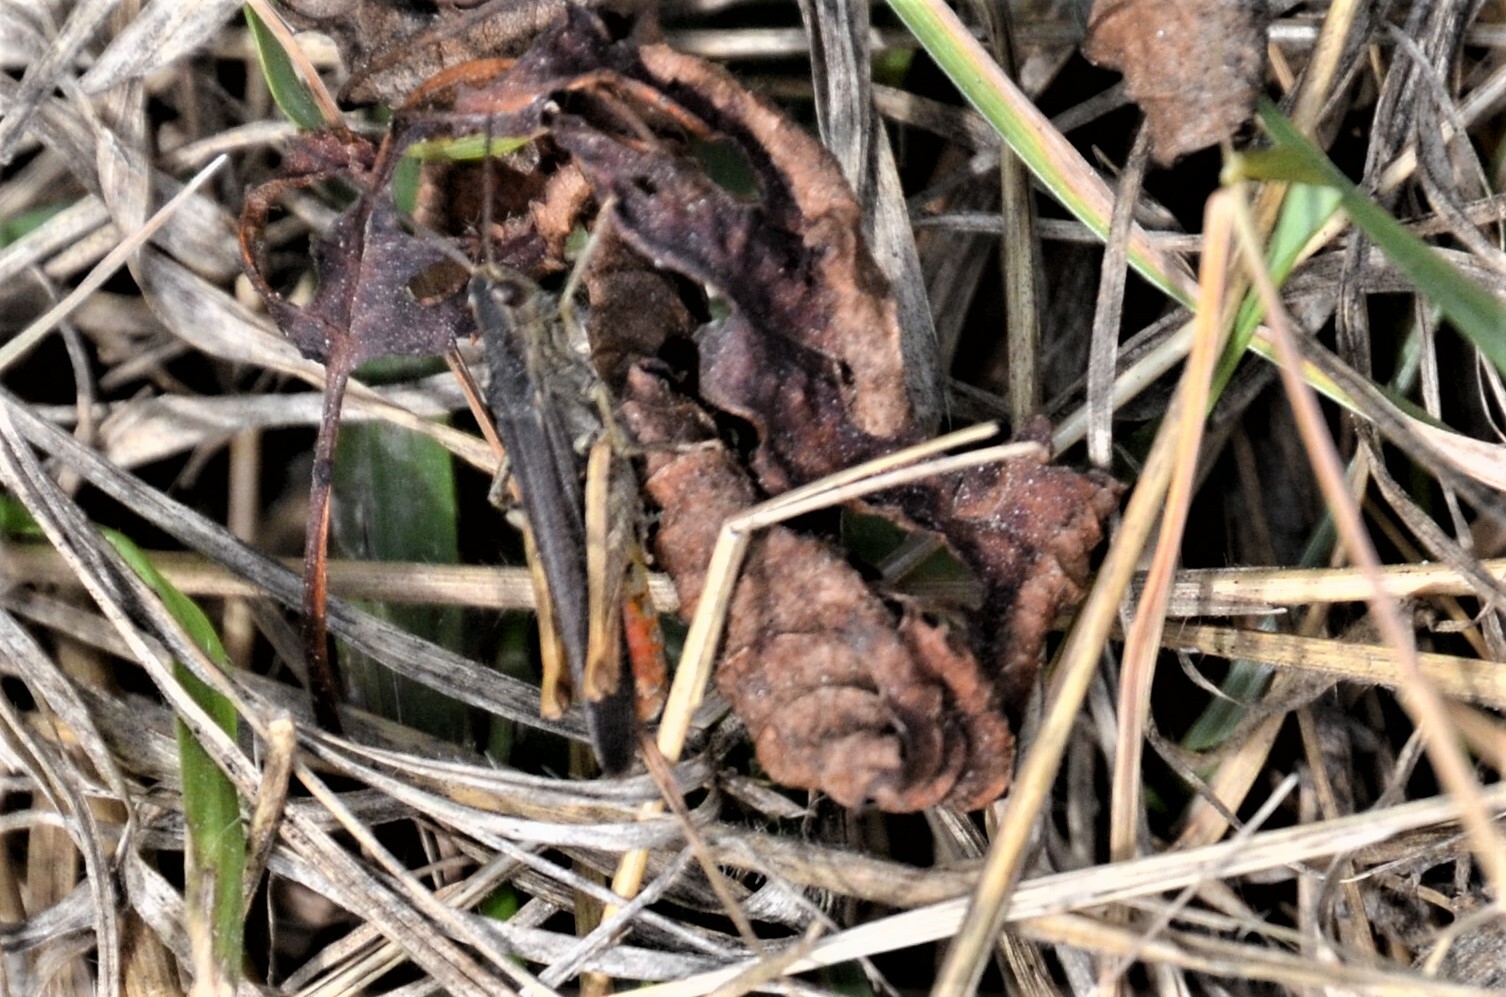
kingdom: Animalia
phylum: Arthropoda
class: Insecta
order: Orthoptera
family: Acrididae
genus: Chorthippus
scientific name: Chorthippus brunneus
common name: Field grasshopper
